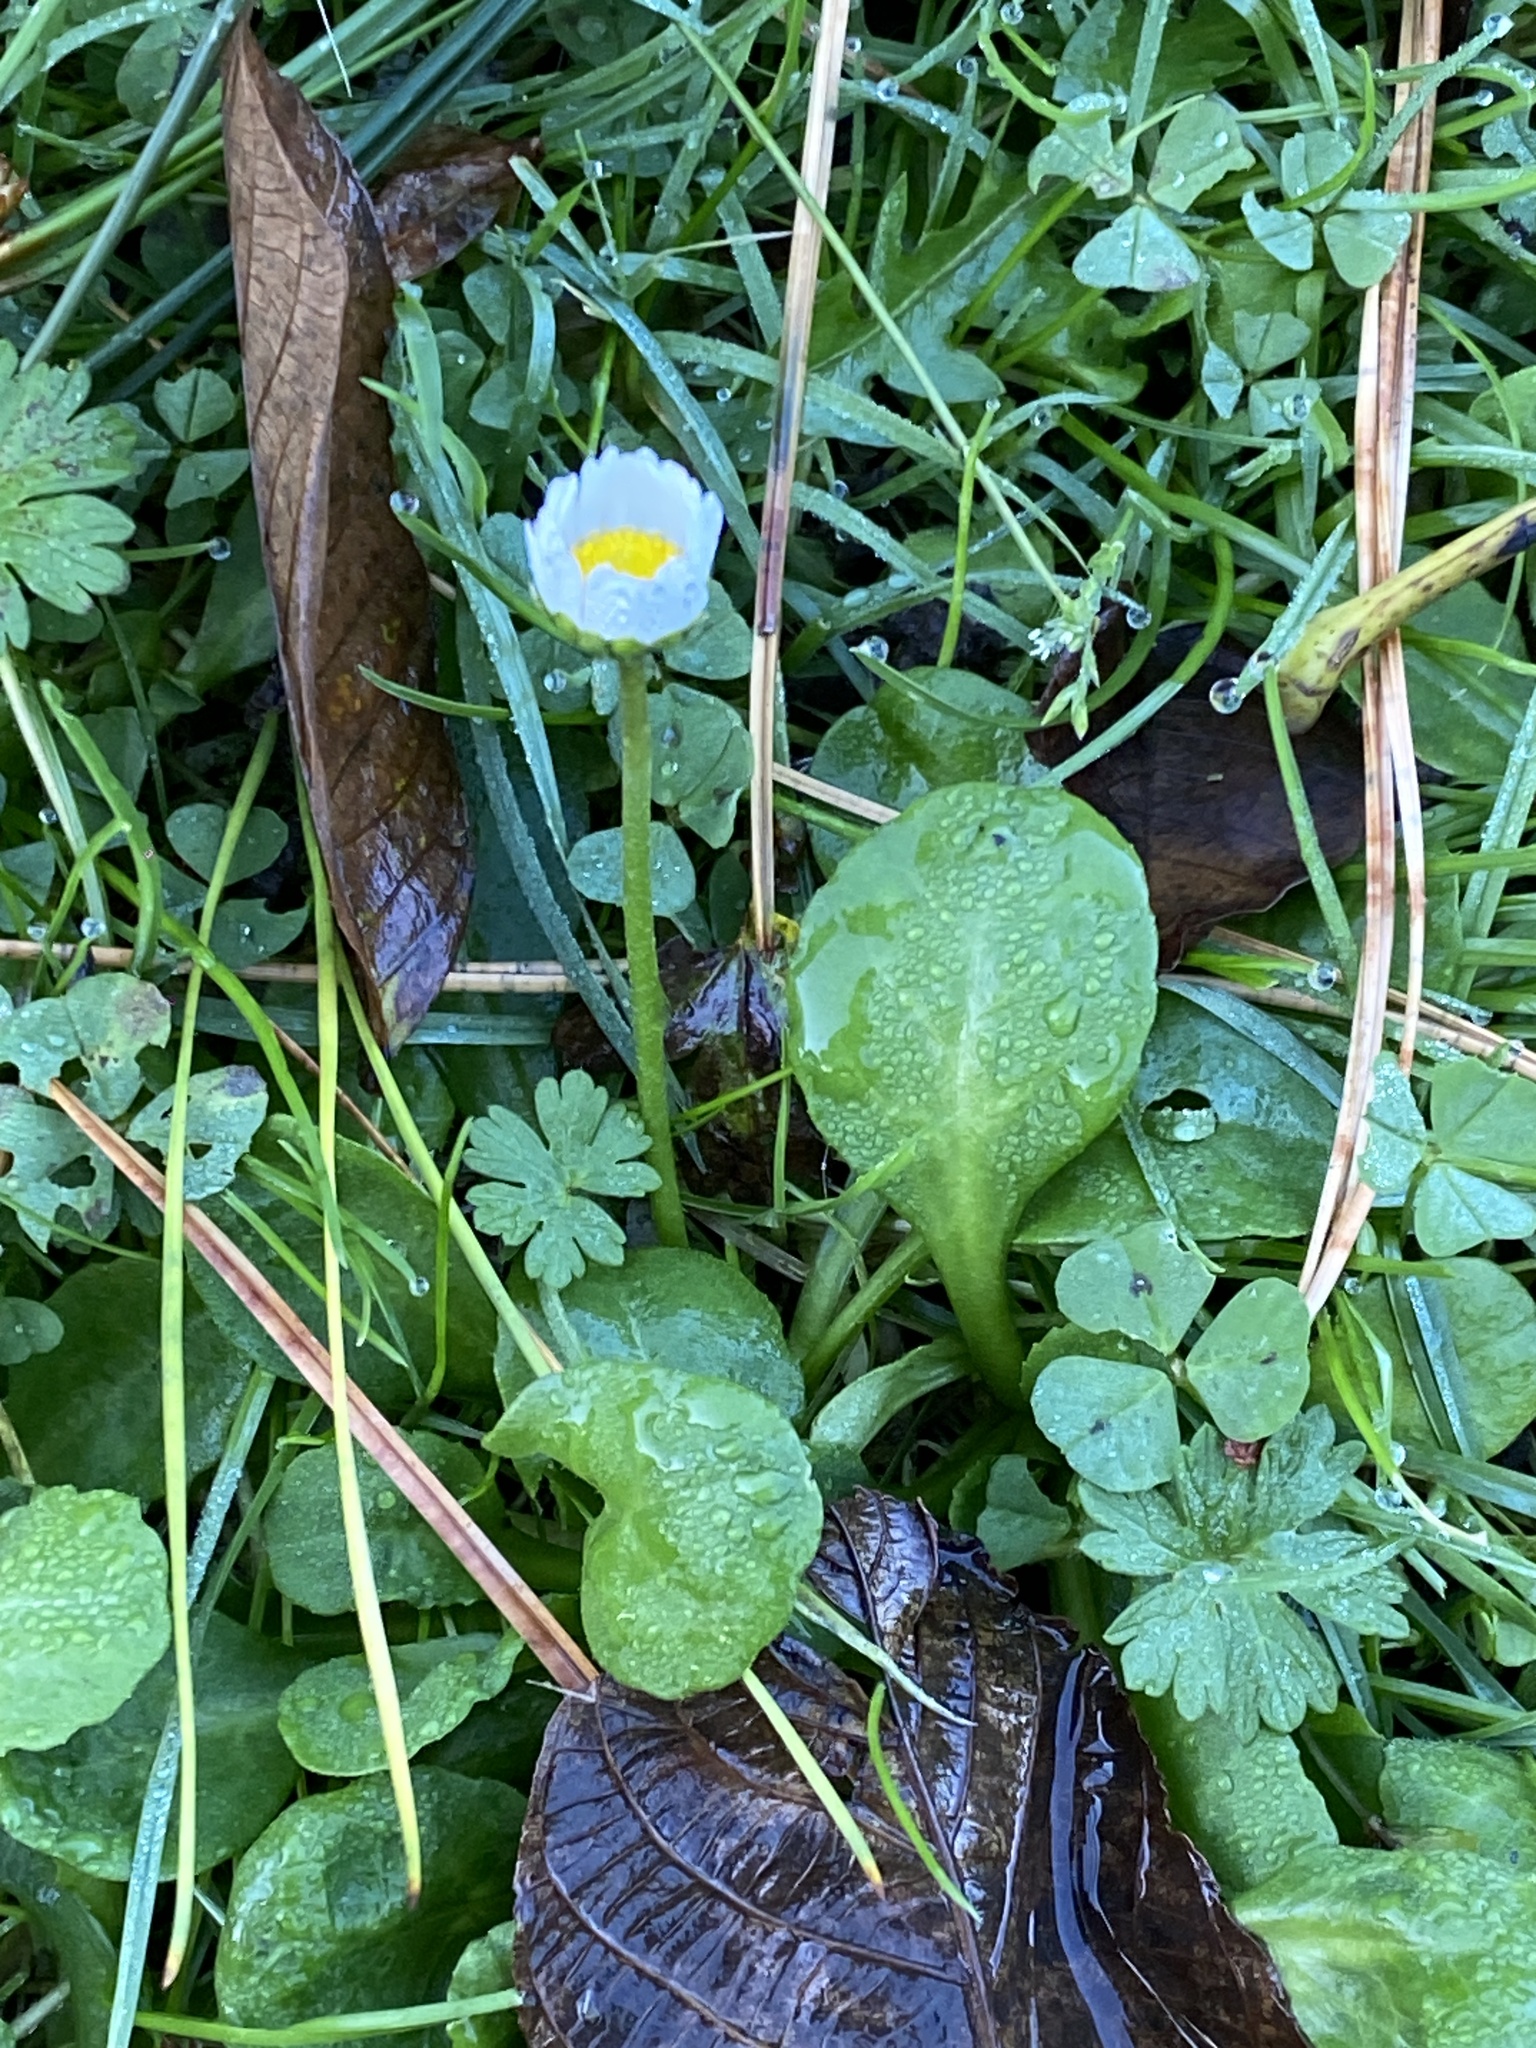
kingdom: Plantae
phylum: Tracheophyta
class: Magnoliopsida
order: Asterales
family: Asteraceae
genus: Bellis
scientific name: Bellis perennis
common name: Lawndaisy
